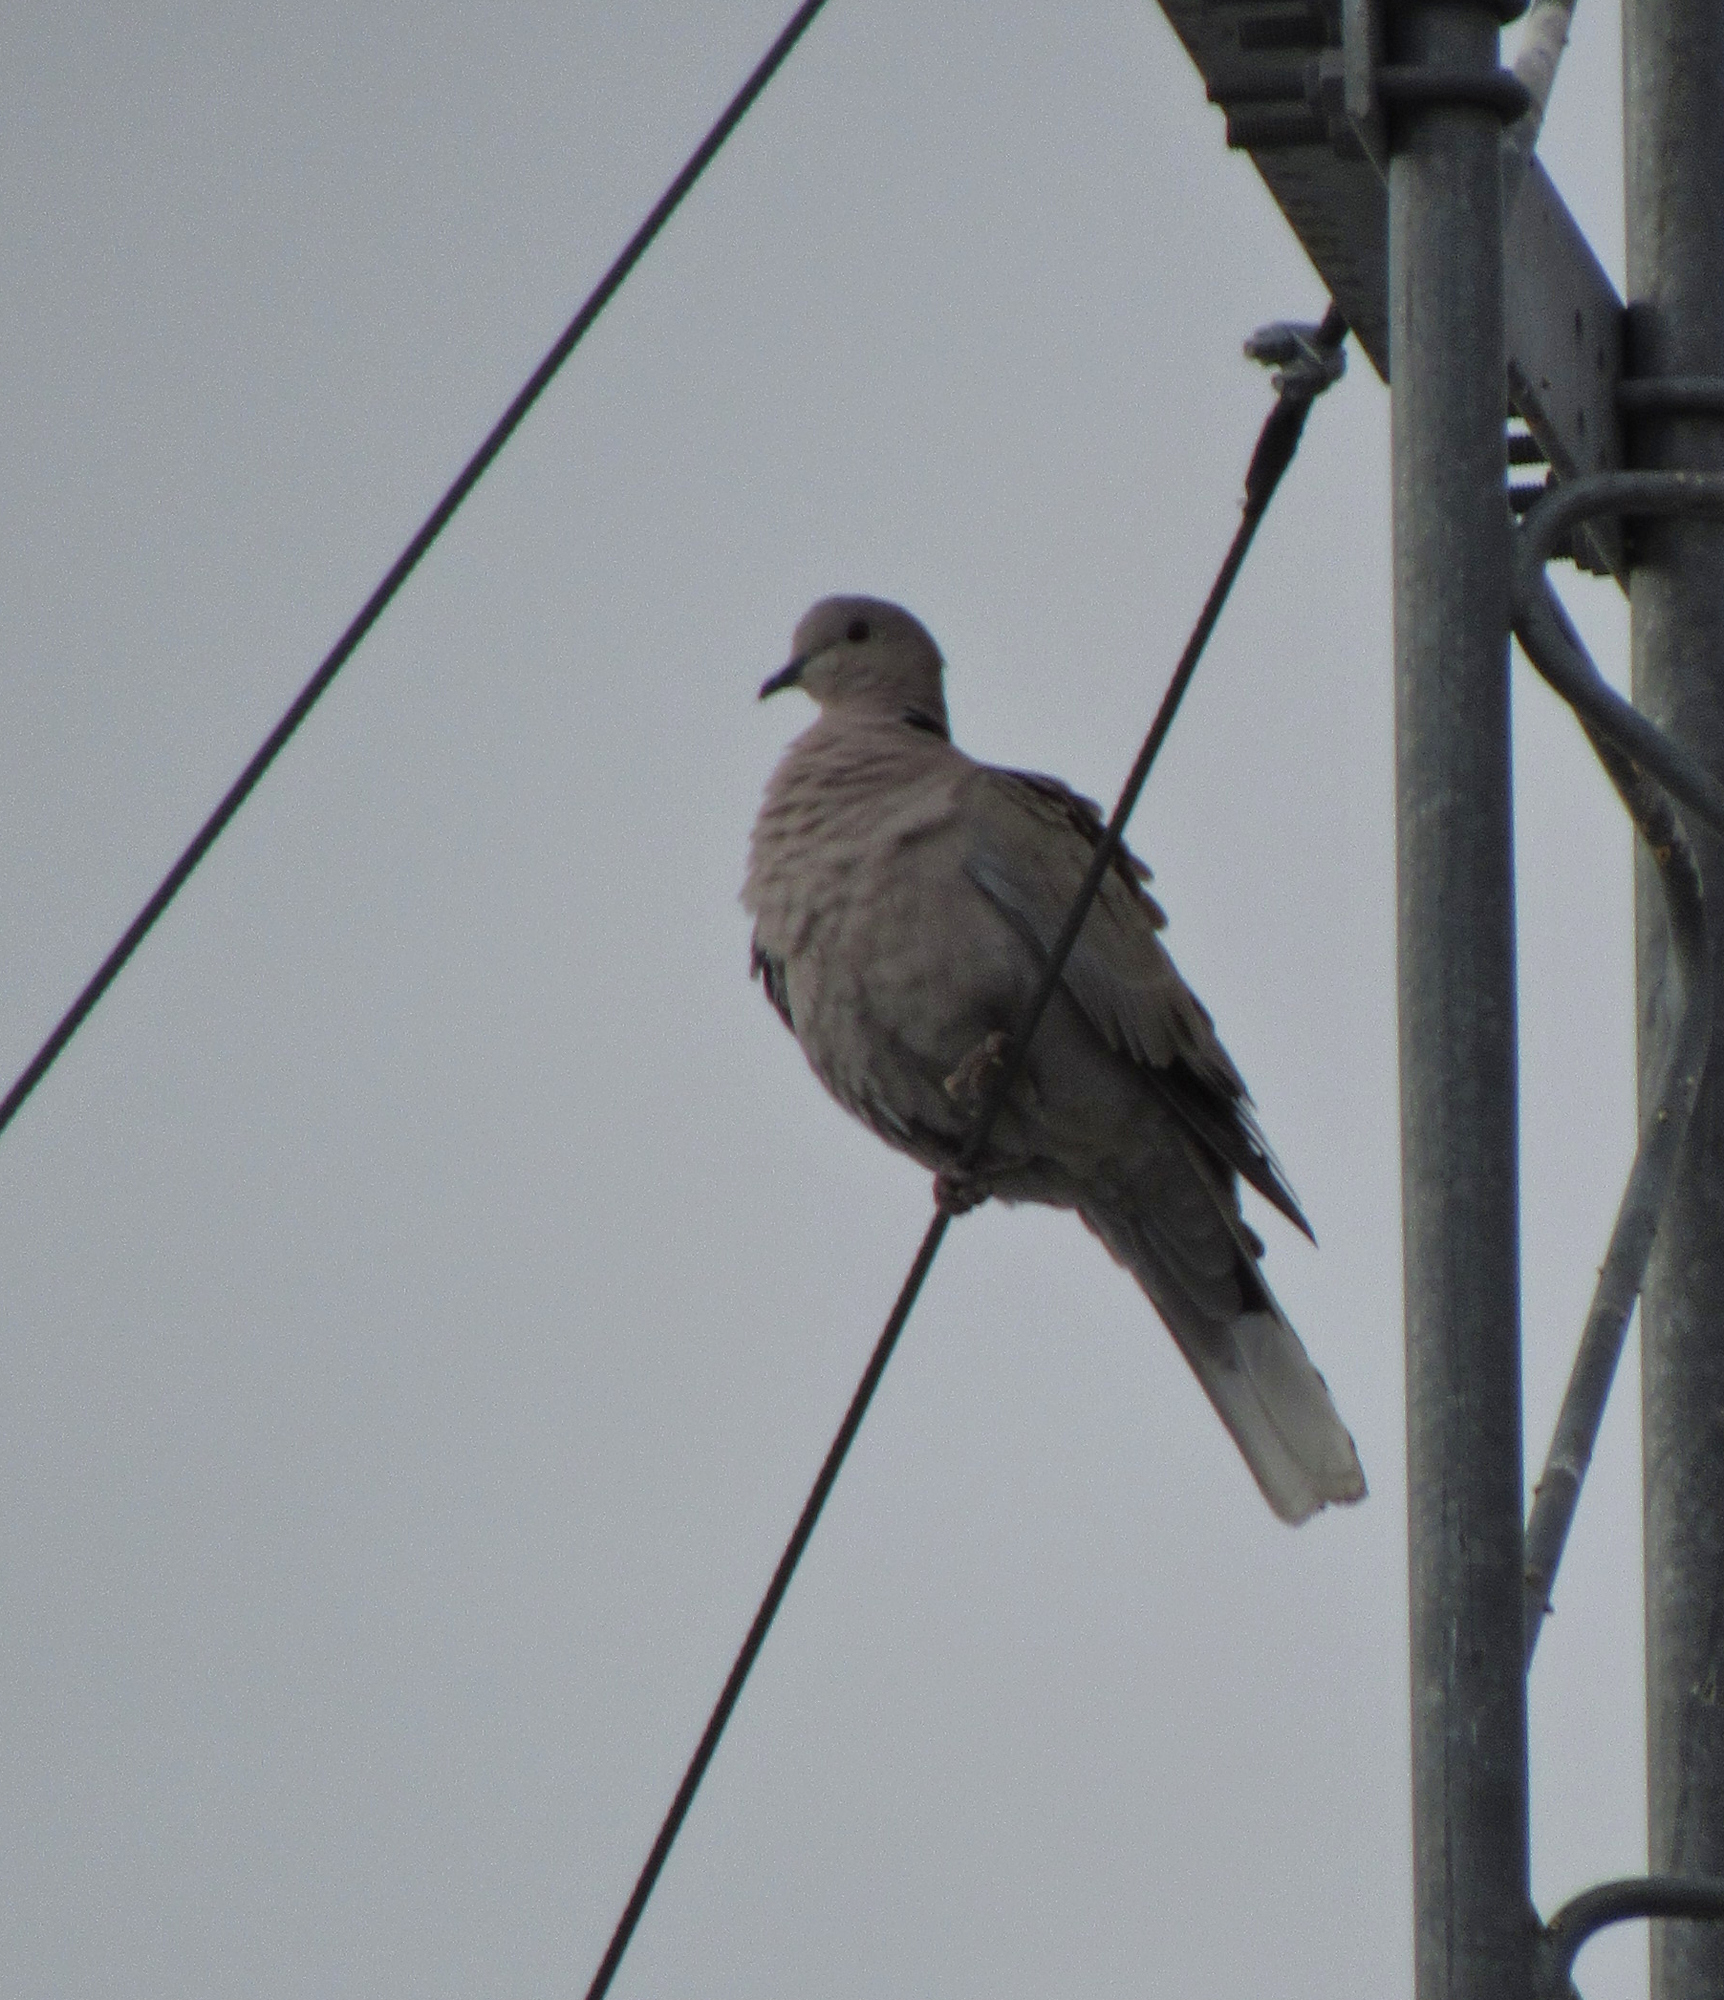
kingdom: Animalia
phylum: Chordata
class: Aves
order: Columbiformes
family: Columbidae
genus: Streptopelia
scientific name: Streptopelia decaocto
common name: Eurasian collared dove
